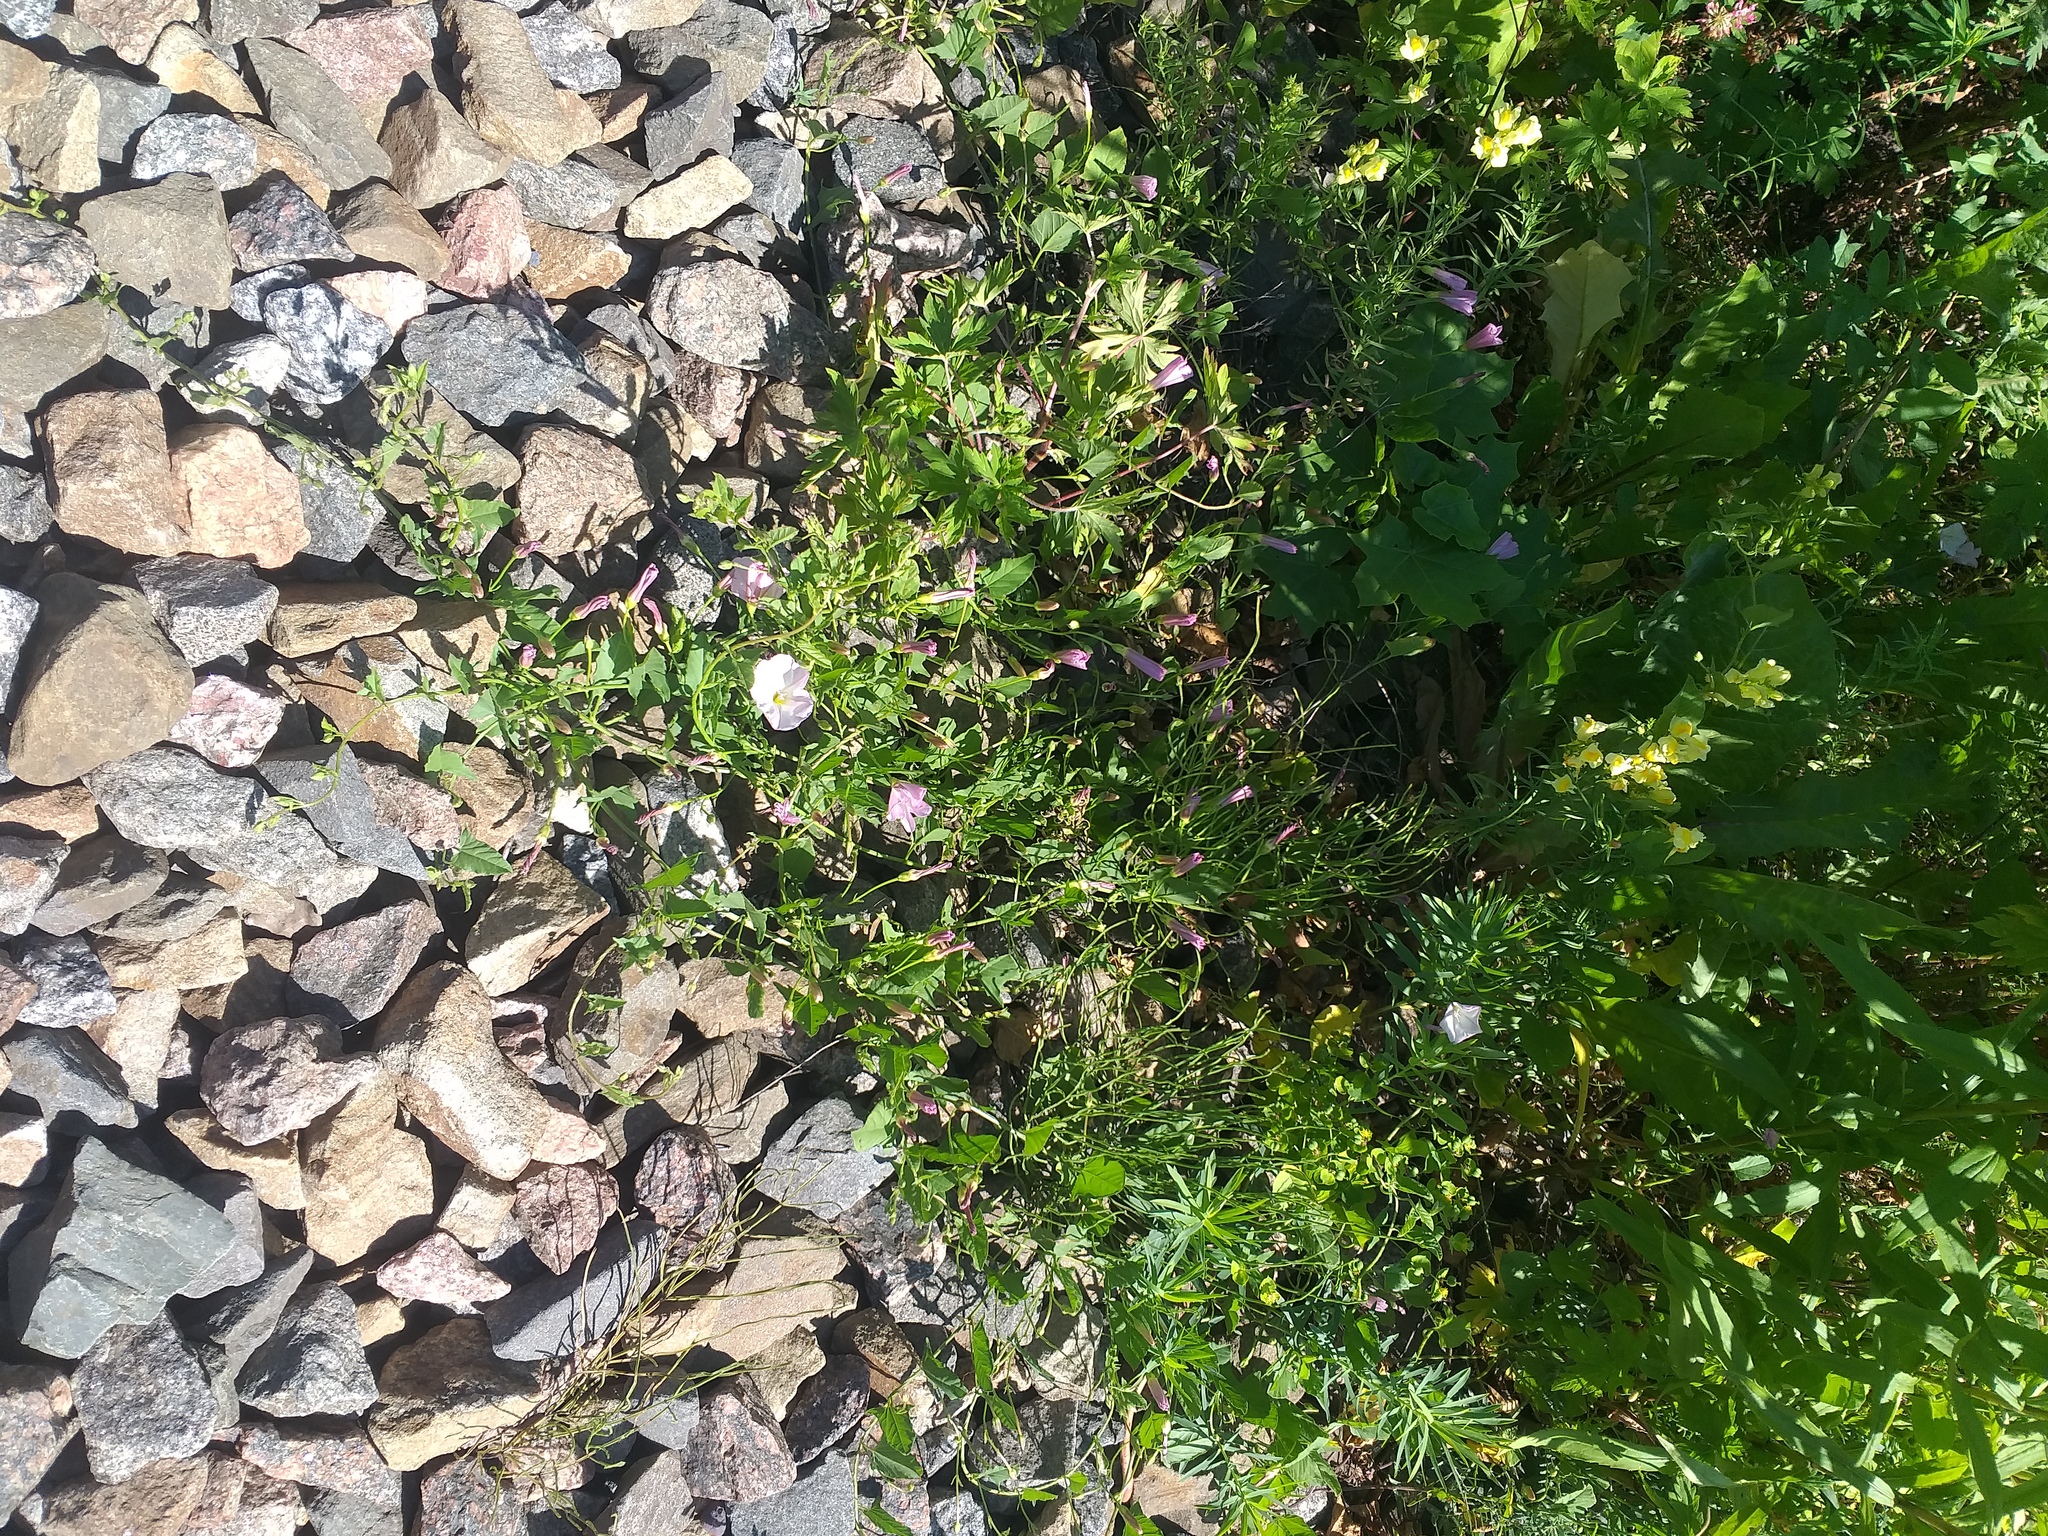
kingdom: Plantae
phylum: Tracheophyta
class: Magnoliopsida
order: Solanales
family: Convolvulaceae
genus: Convolvulus
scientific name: Convolvulus arvensis
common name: Field bindweed
